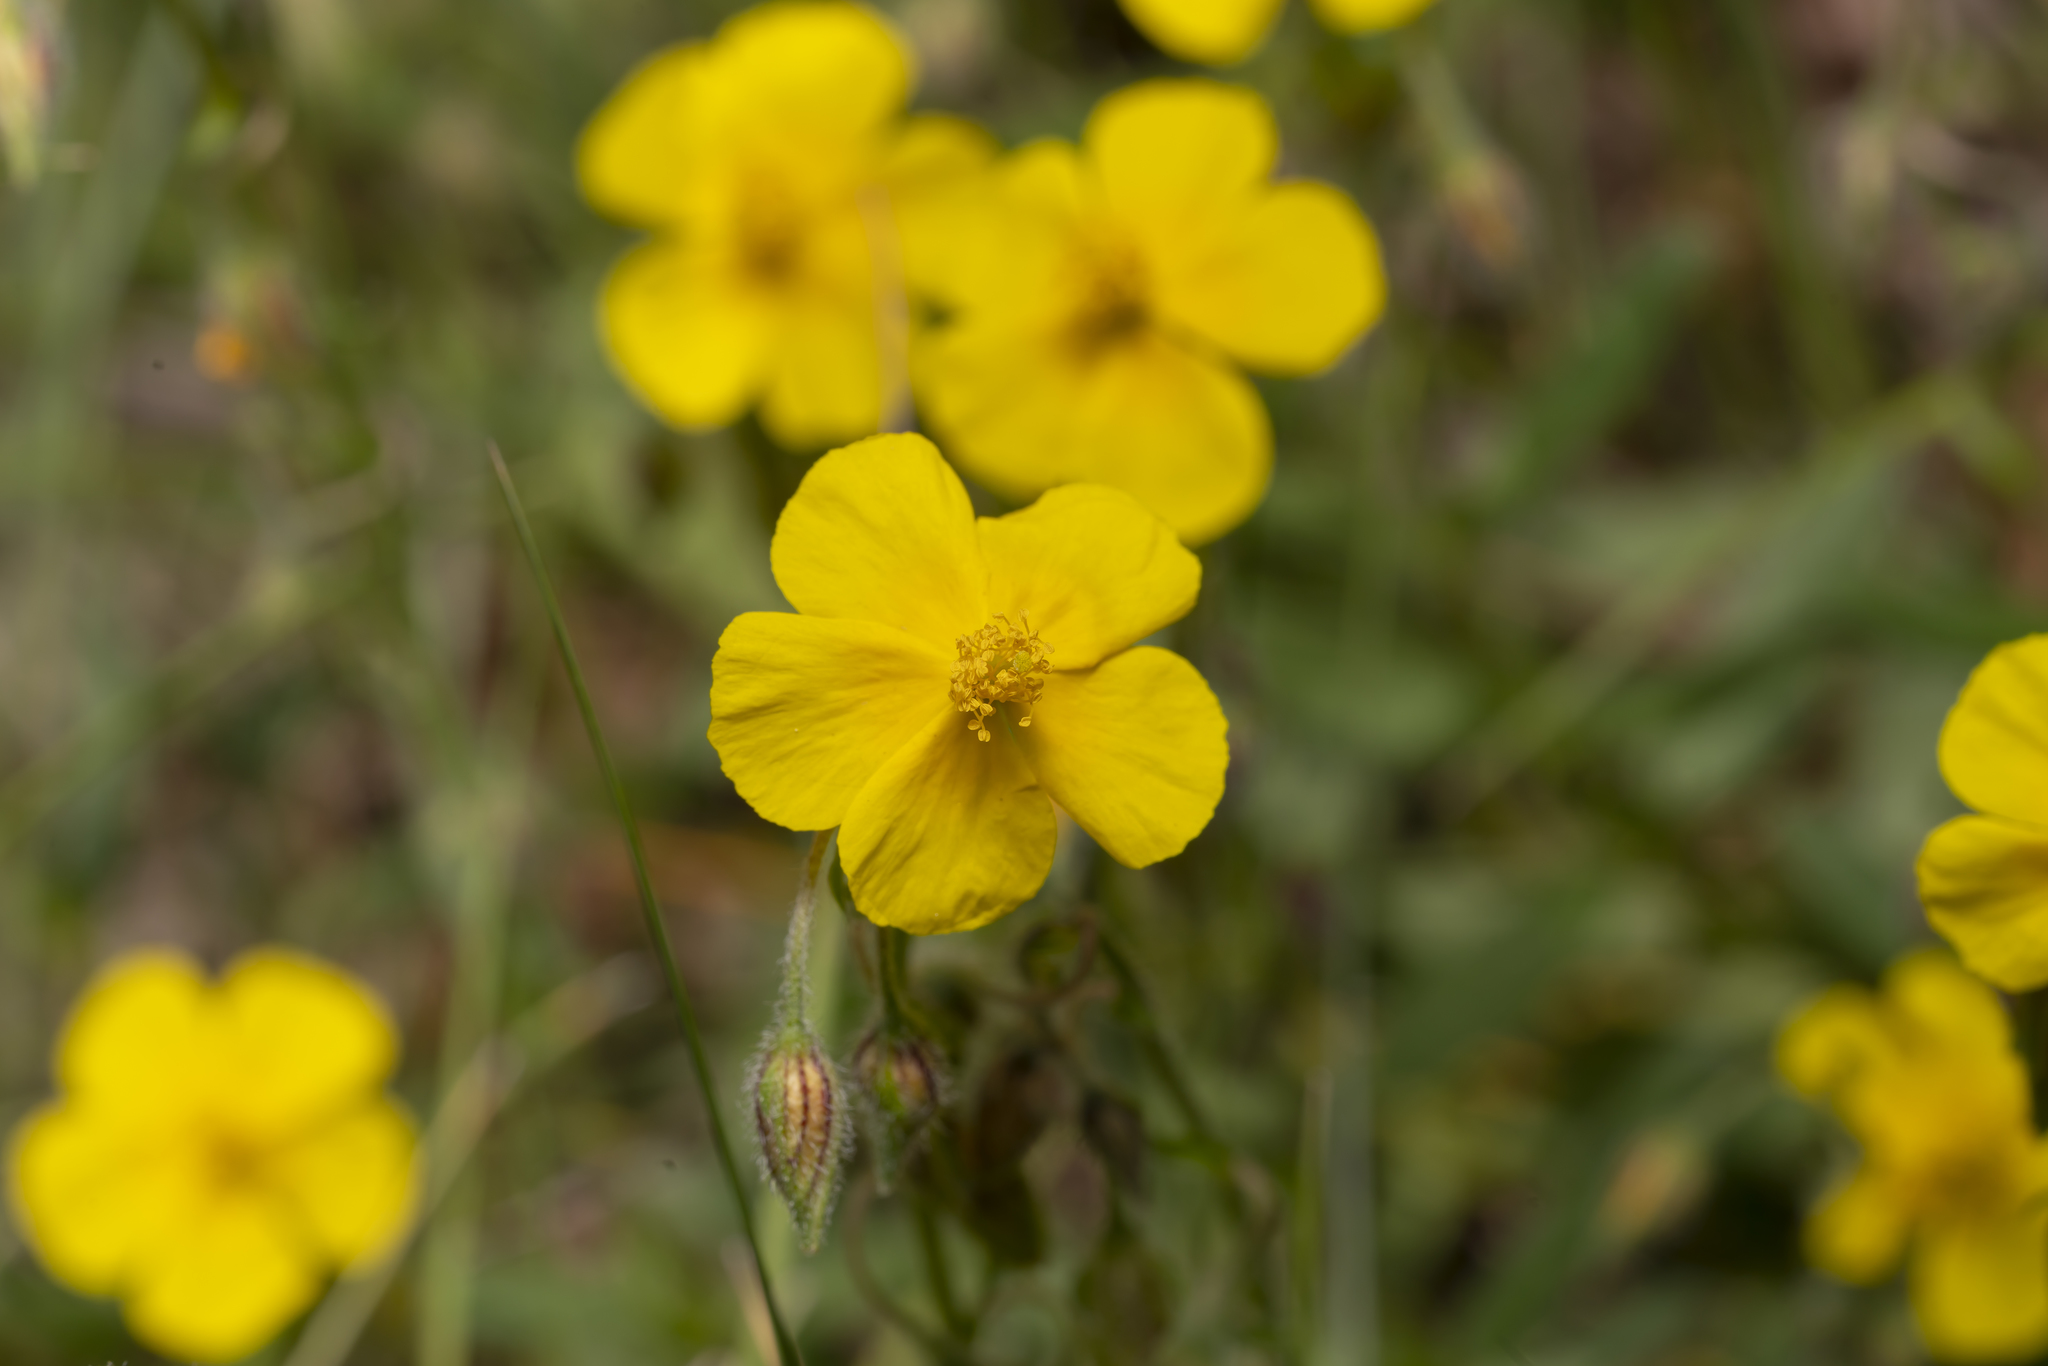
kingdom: Plantae
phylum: Tracheophyta
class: Magnoliopsida
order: Malvales
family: Cistaceae
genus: Helianthemum
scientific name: Helianthemum nummularium
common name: Common rock-rose
